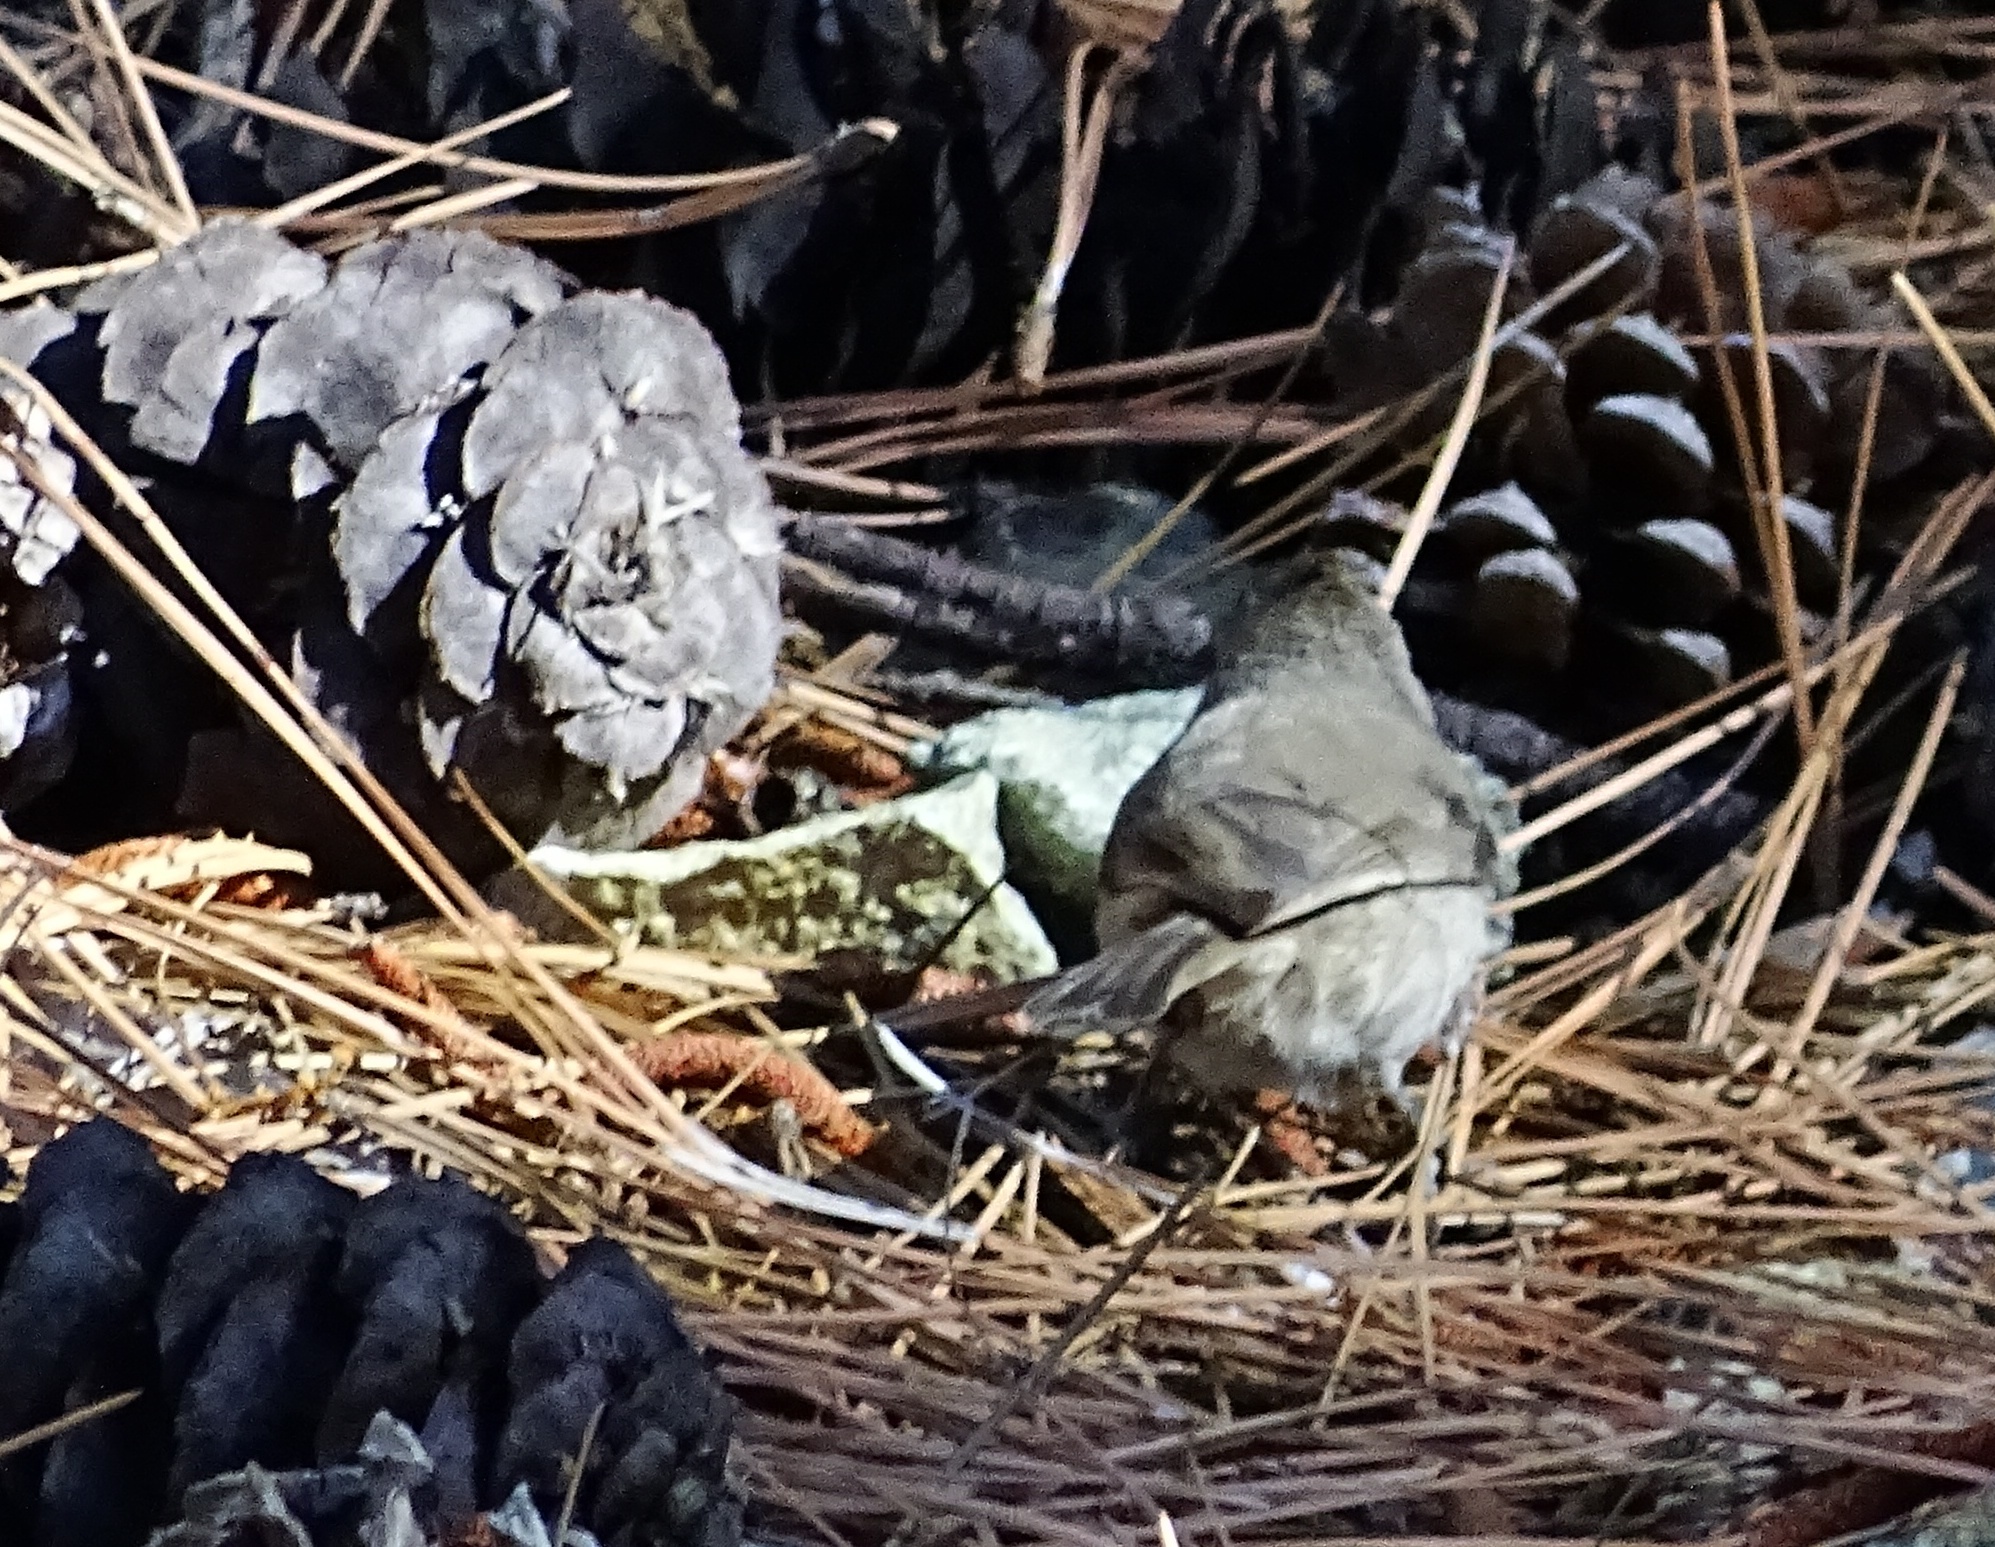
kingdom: Animalia
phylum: Chordata
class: Aves
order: Passeriformes
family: Paridae
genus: Baeolophus
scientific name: Baeolophus inornatus
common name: Oak titmouse
